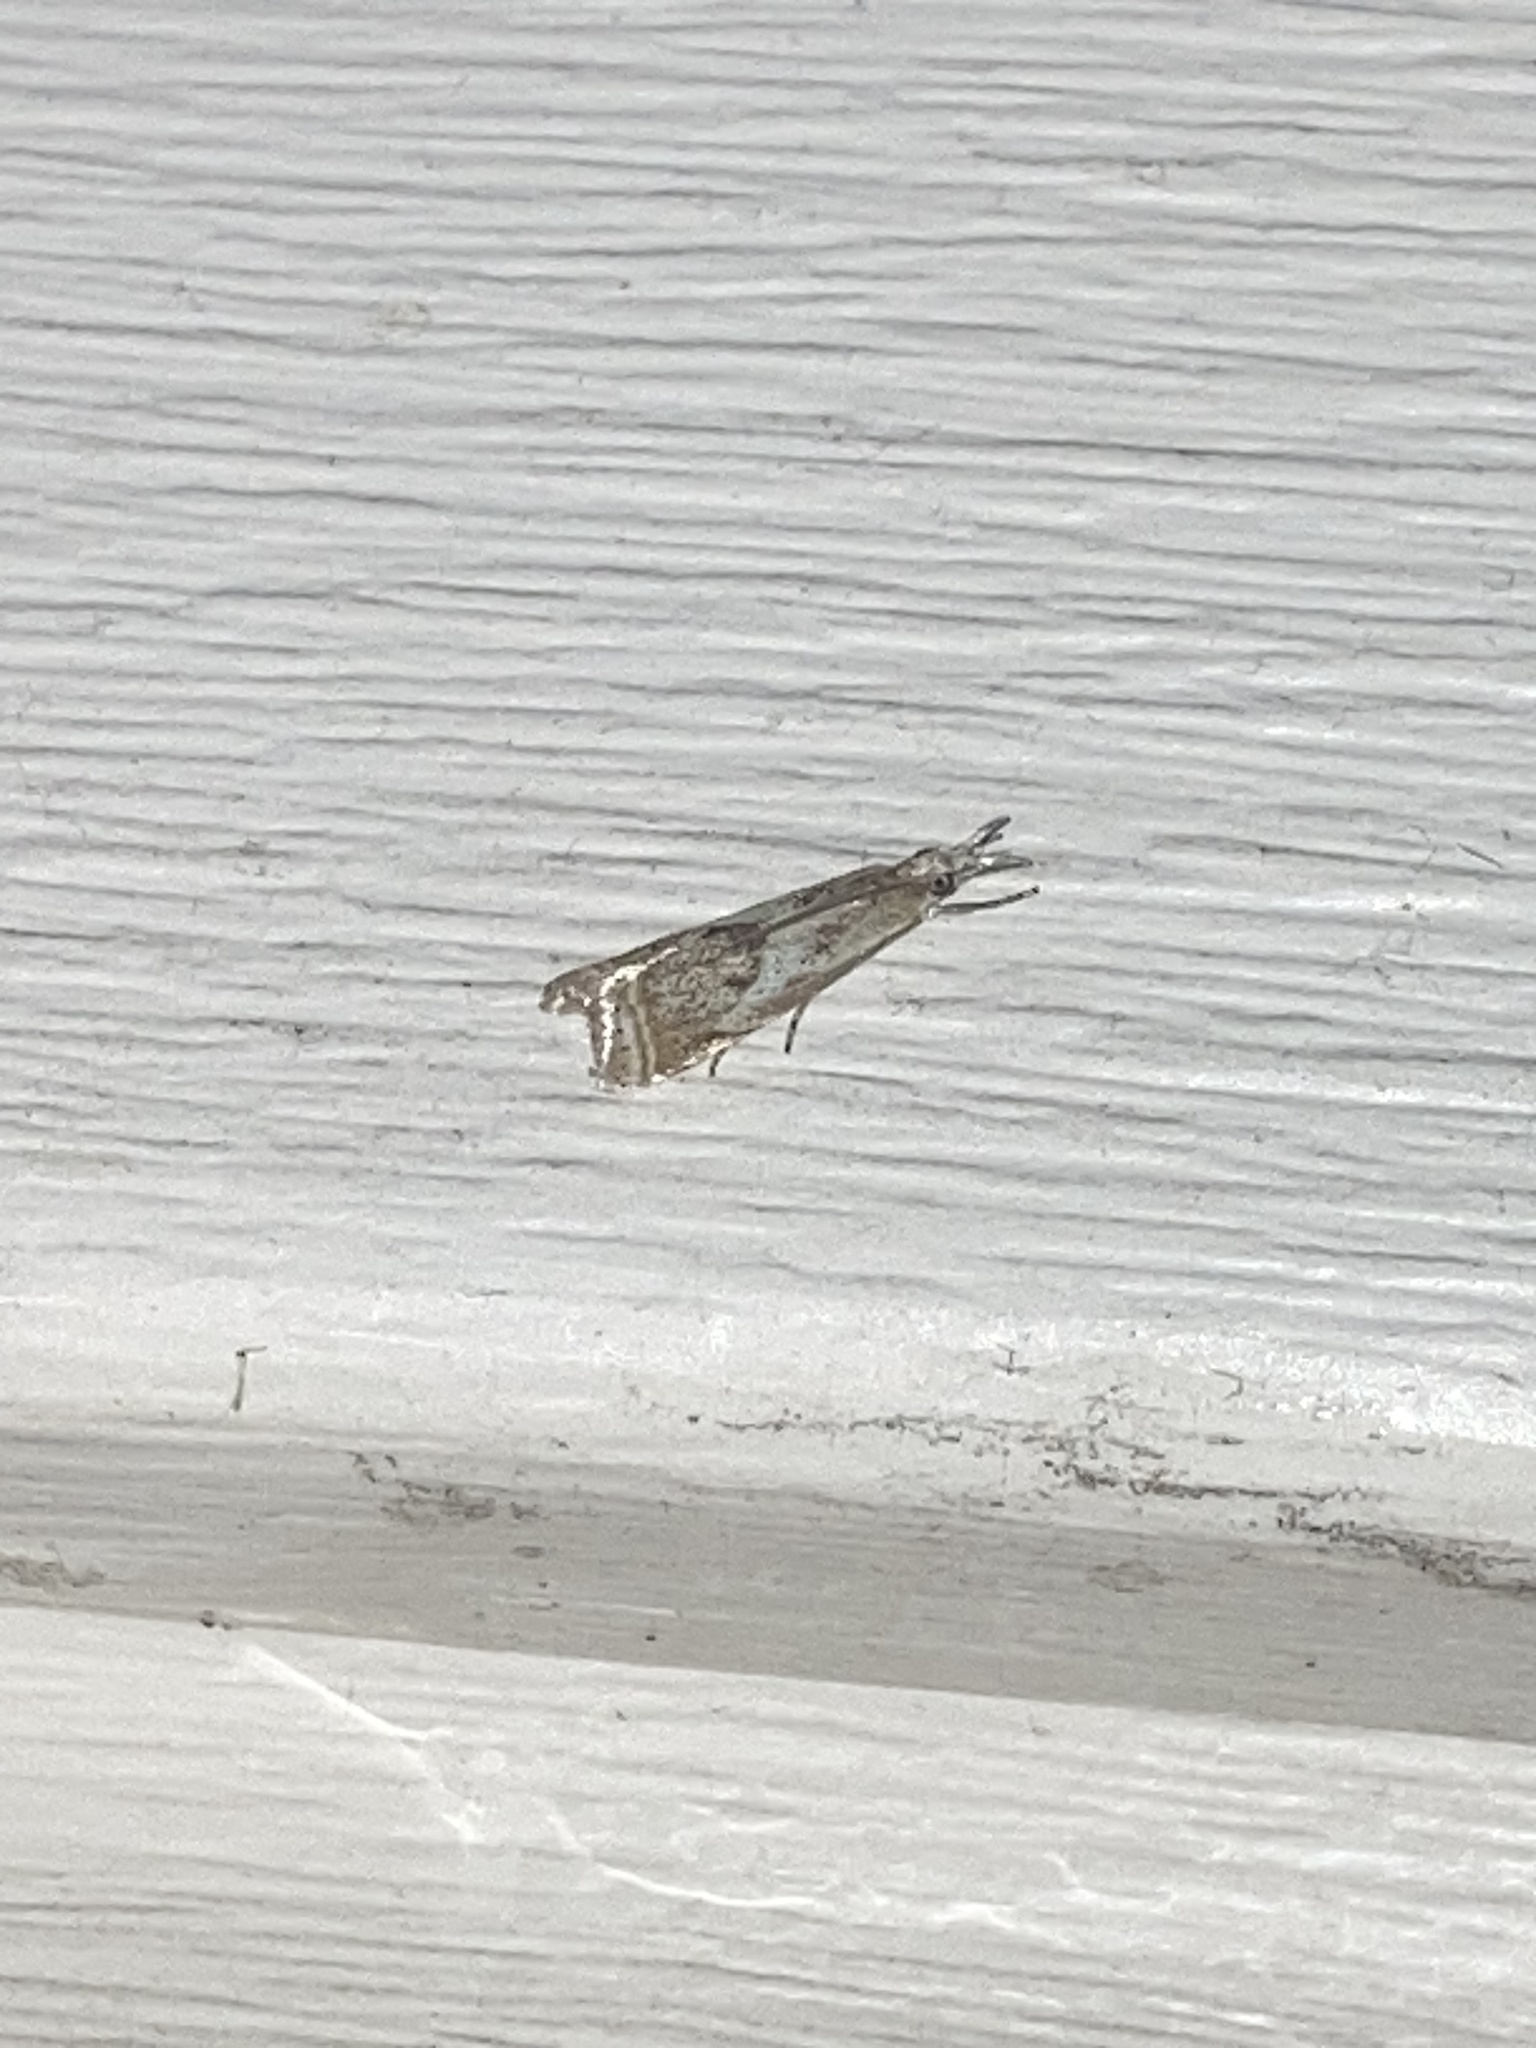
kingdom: Animalia
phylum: Arthropoda
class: Insecta
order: Lepidoptera
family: Crambidae
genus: Microcrambus
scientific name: Microcrambus elegans
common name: Elegant grass-veneer
